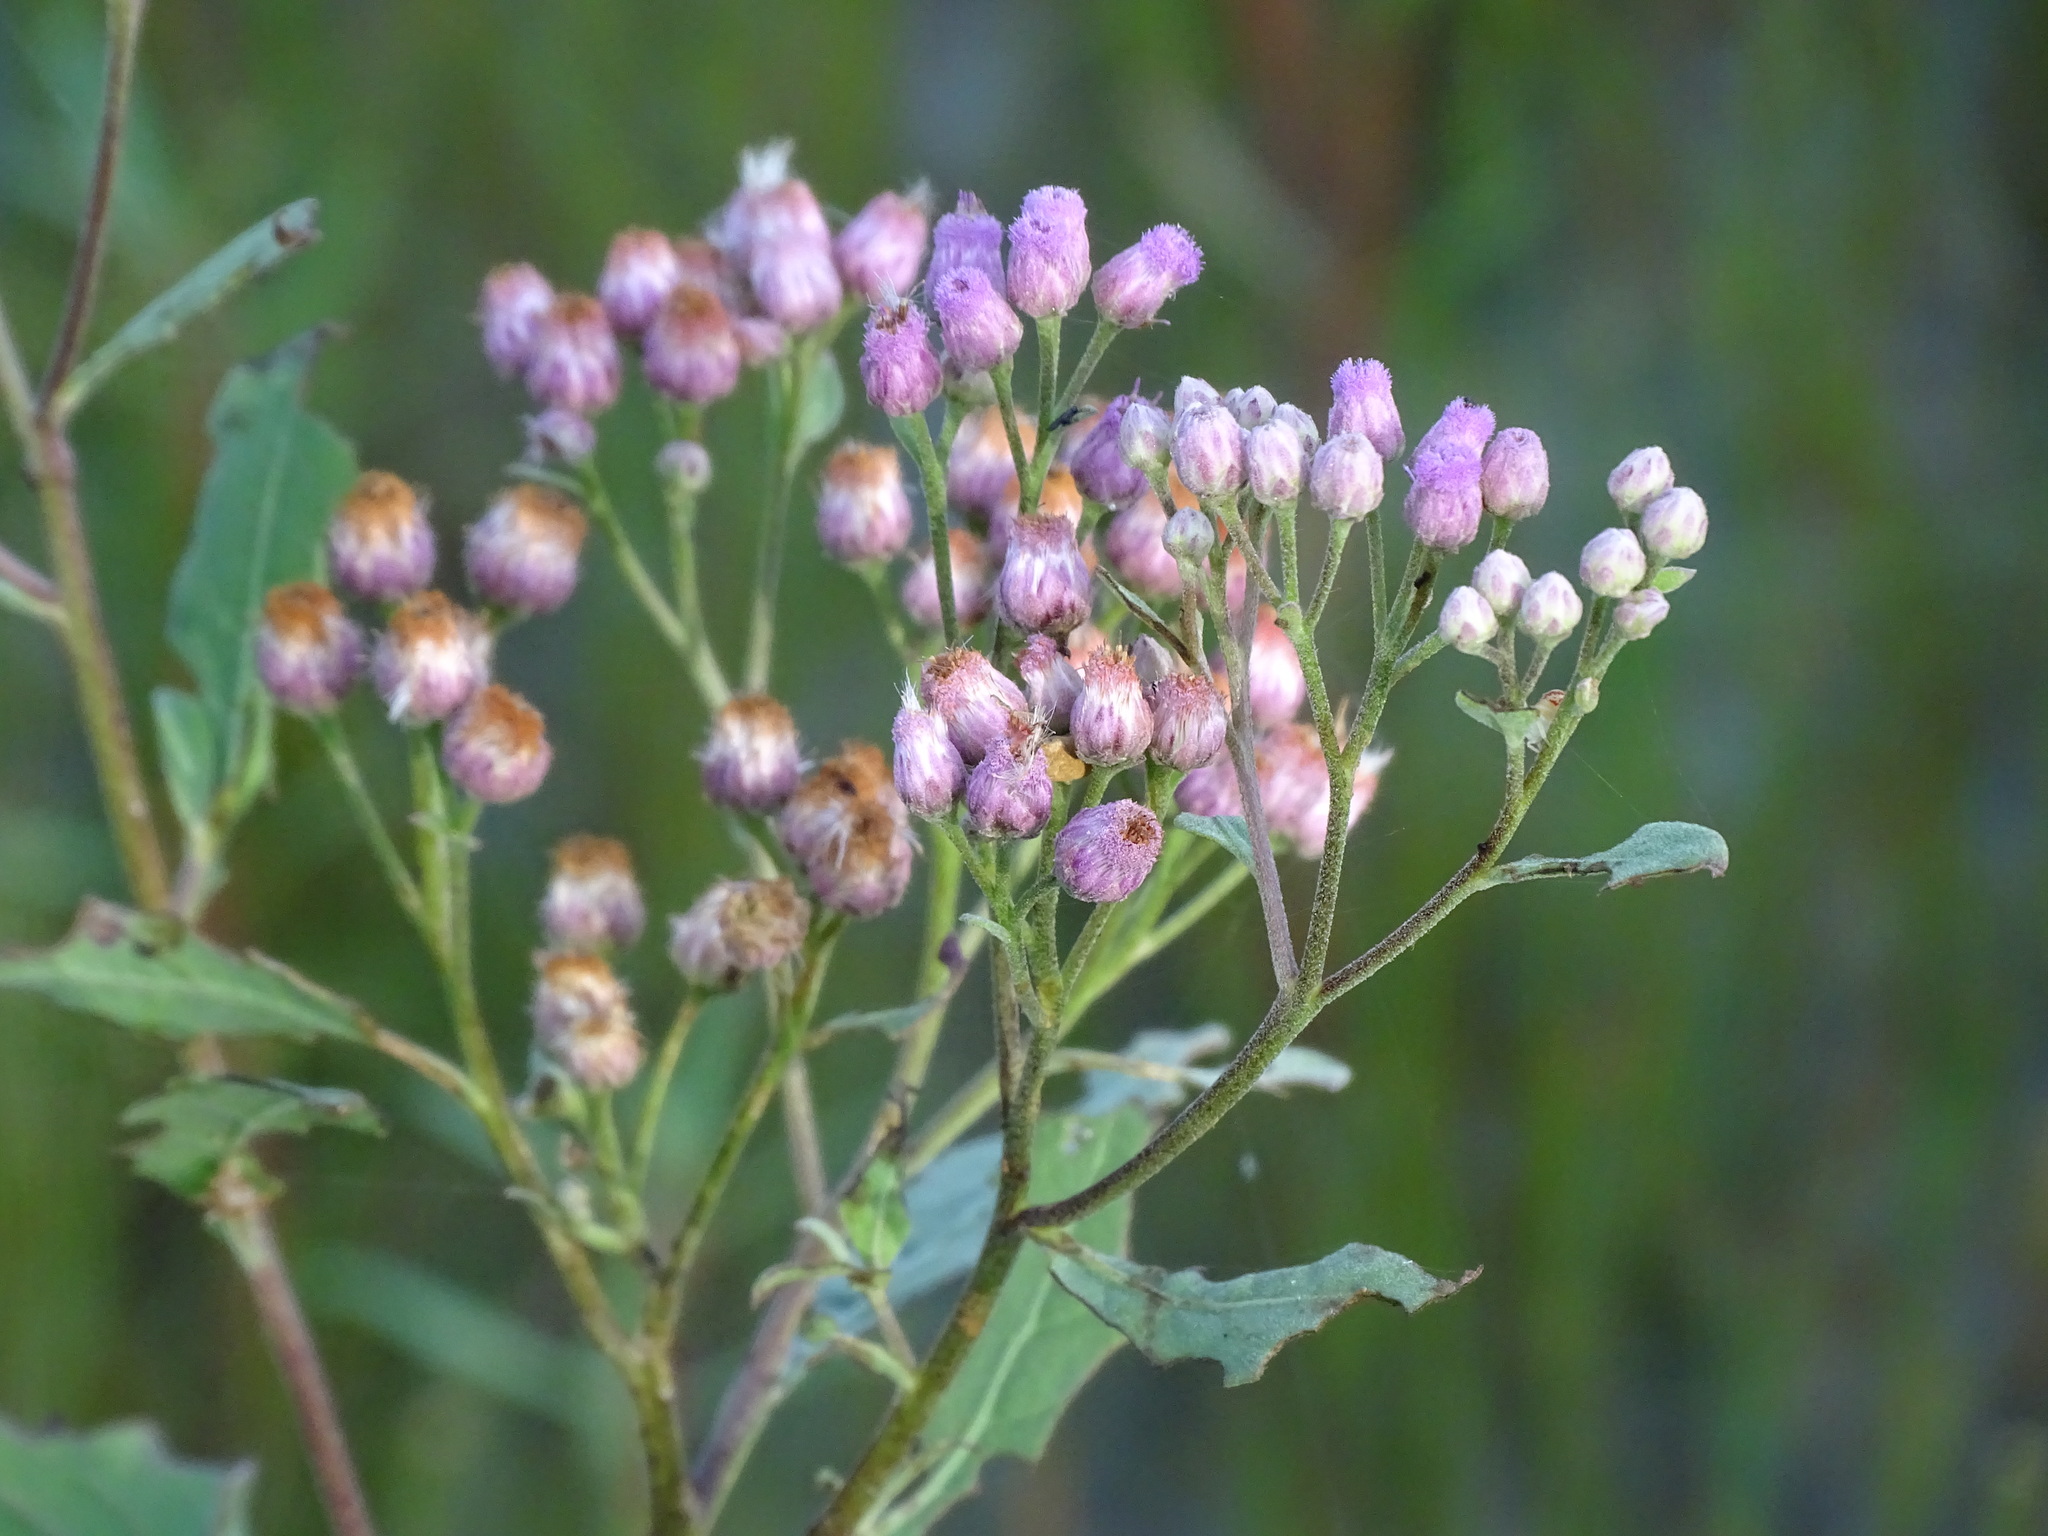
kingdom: Plantae
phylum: Tracheophyta
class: Magnoliopsida
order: Asterales
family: Asteraceae
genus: Pluchea
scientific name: Pluchea odorata
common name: Saltmarsh fleabane
